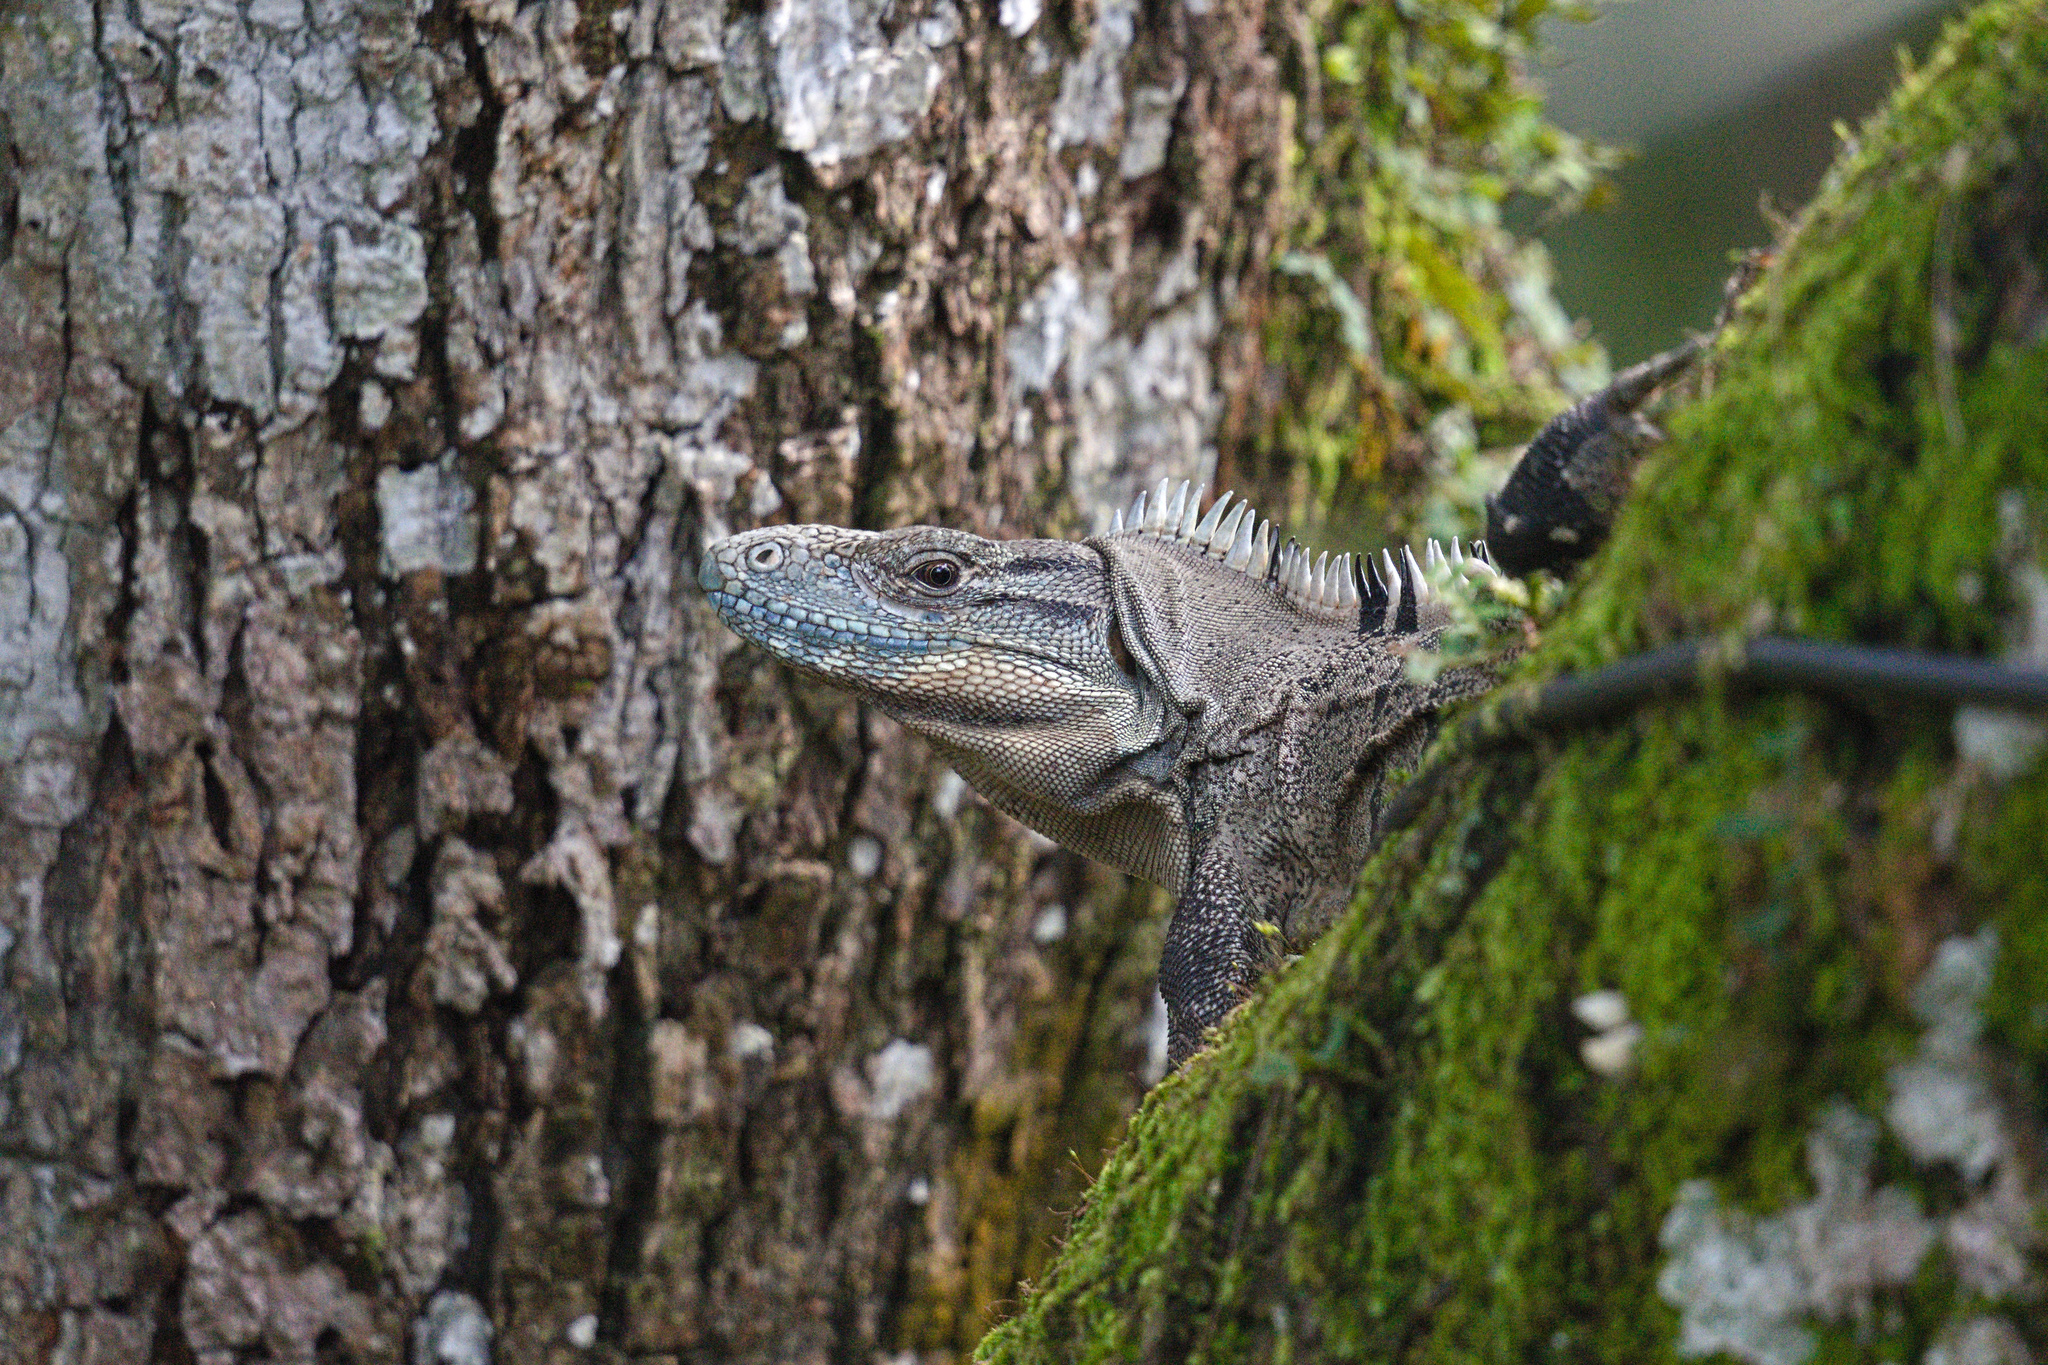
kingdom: Animalia
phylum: Chordata
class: Squamata
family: Iguanidae
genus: Ctenosaura
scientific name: Ctenosaura similis
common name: Black spiny-tailed iguana
